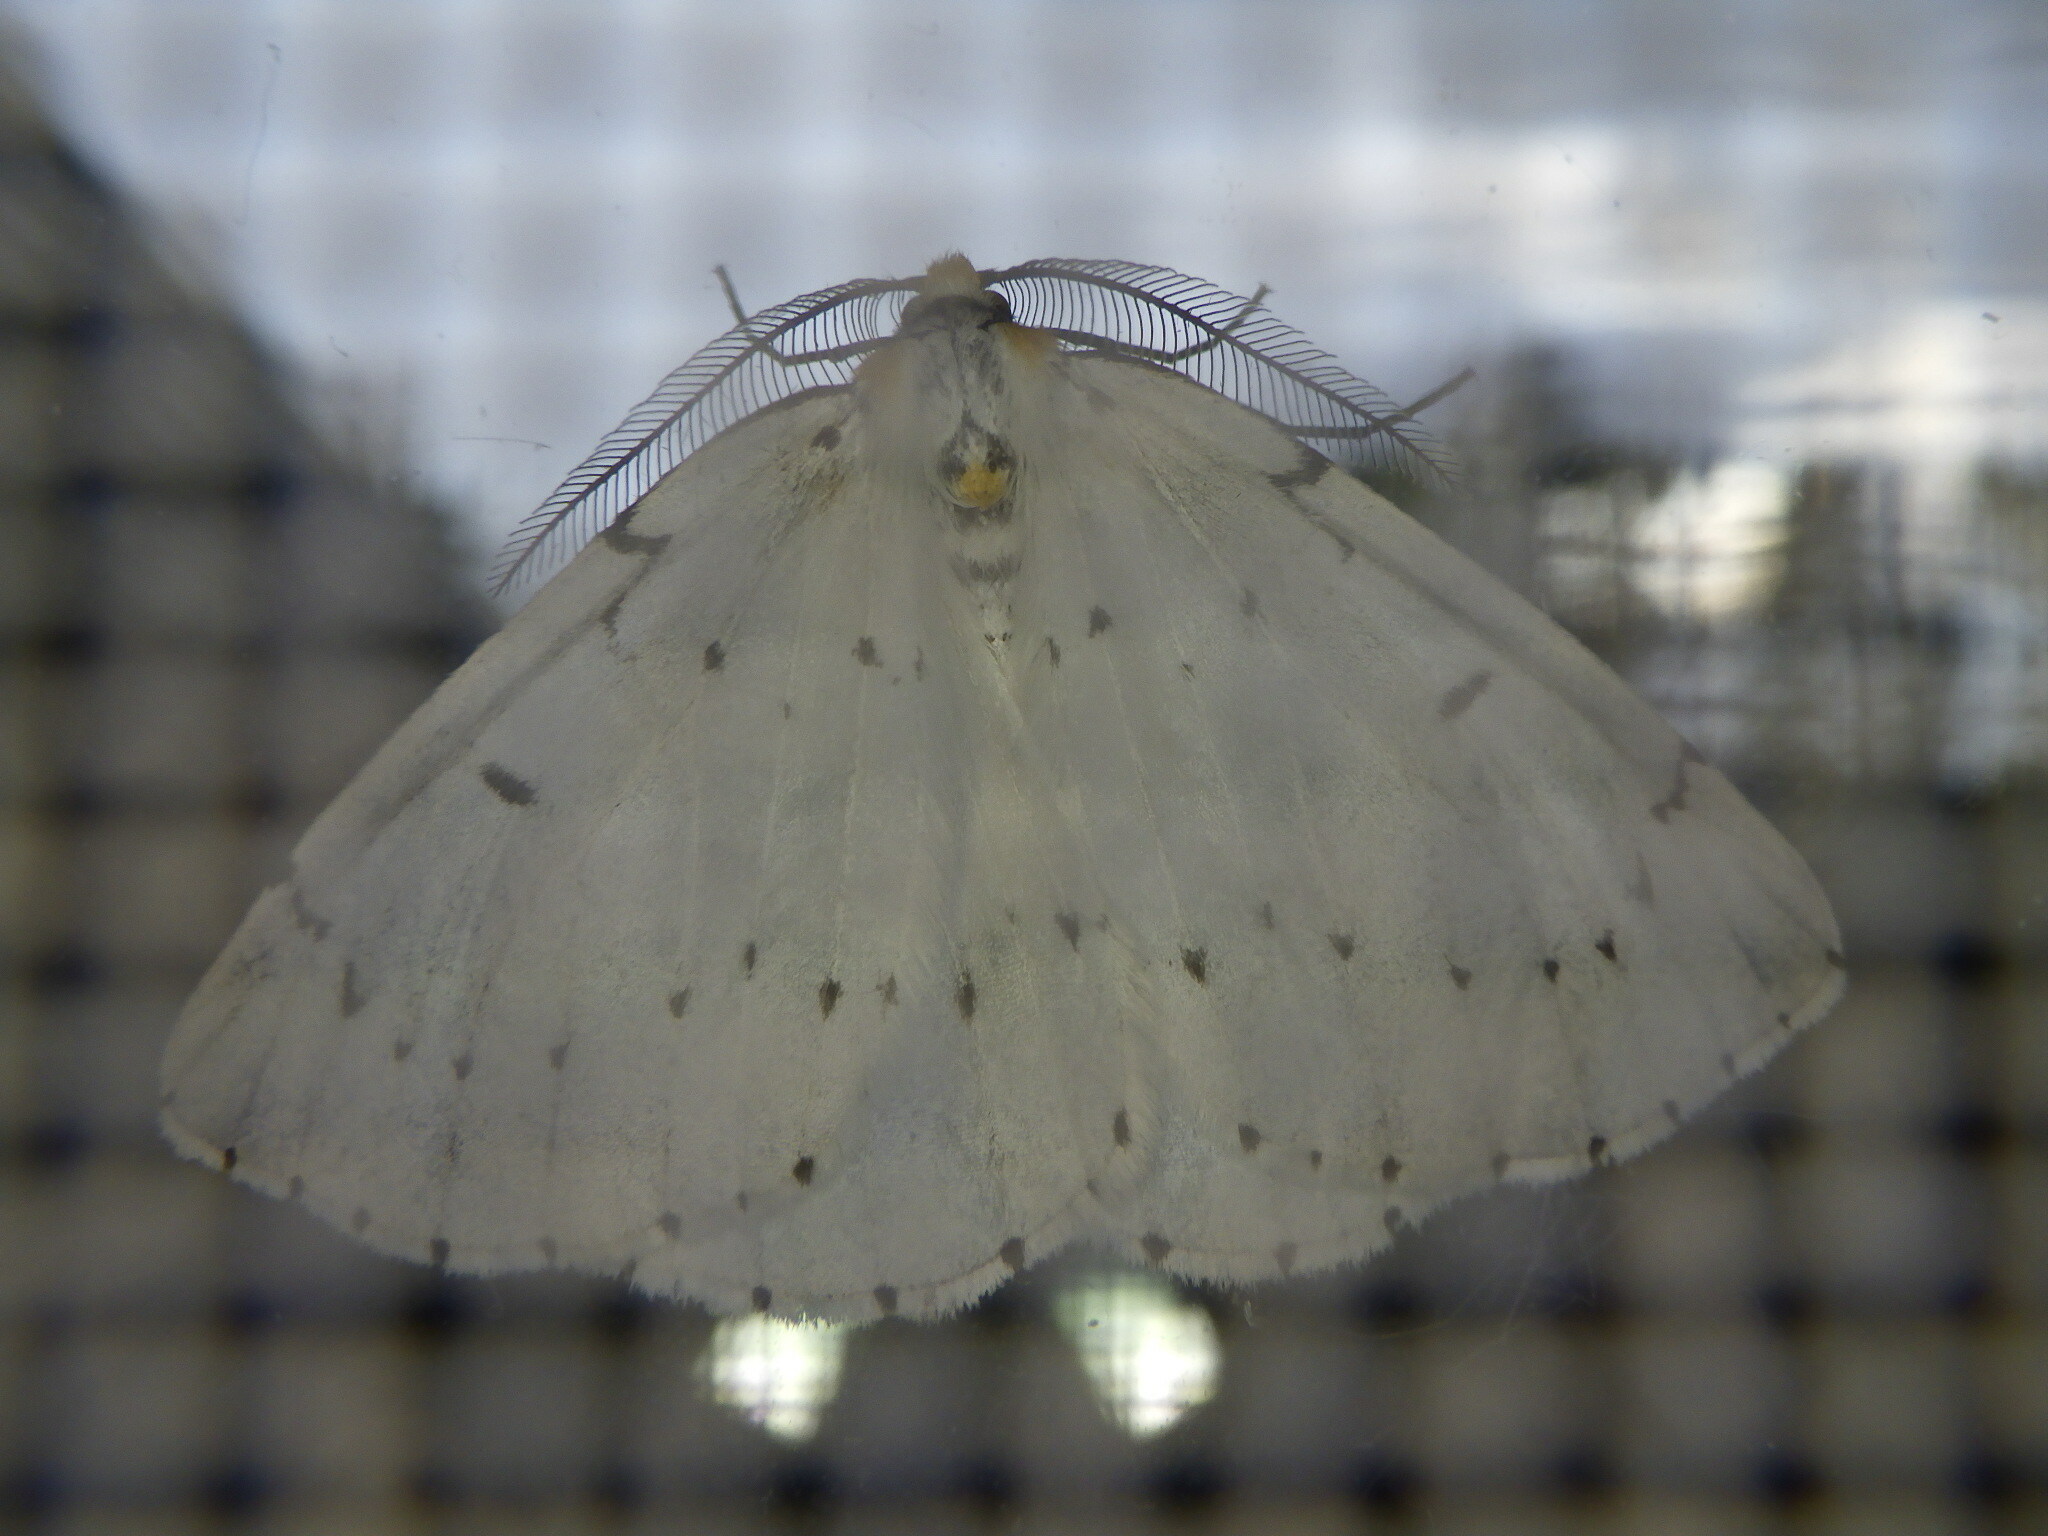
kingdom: Animalia
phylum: Arthropoda
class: Insecta
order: Lepidoptera
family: Geometridae
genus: Cingilia
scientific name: Cingilia catenaria
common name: Chain-dotted geometer
